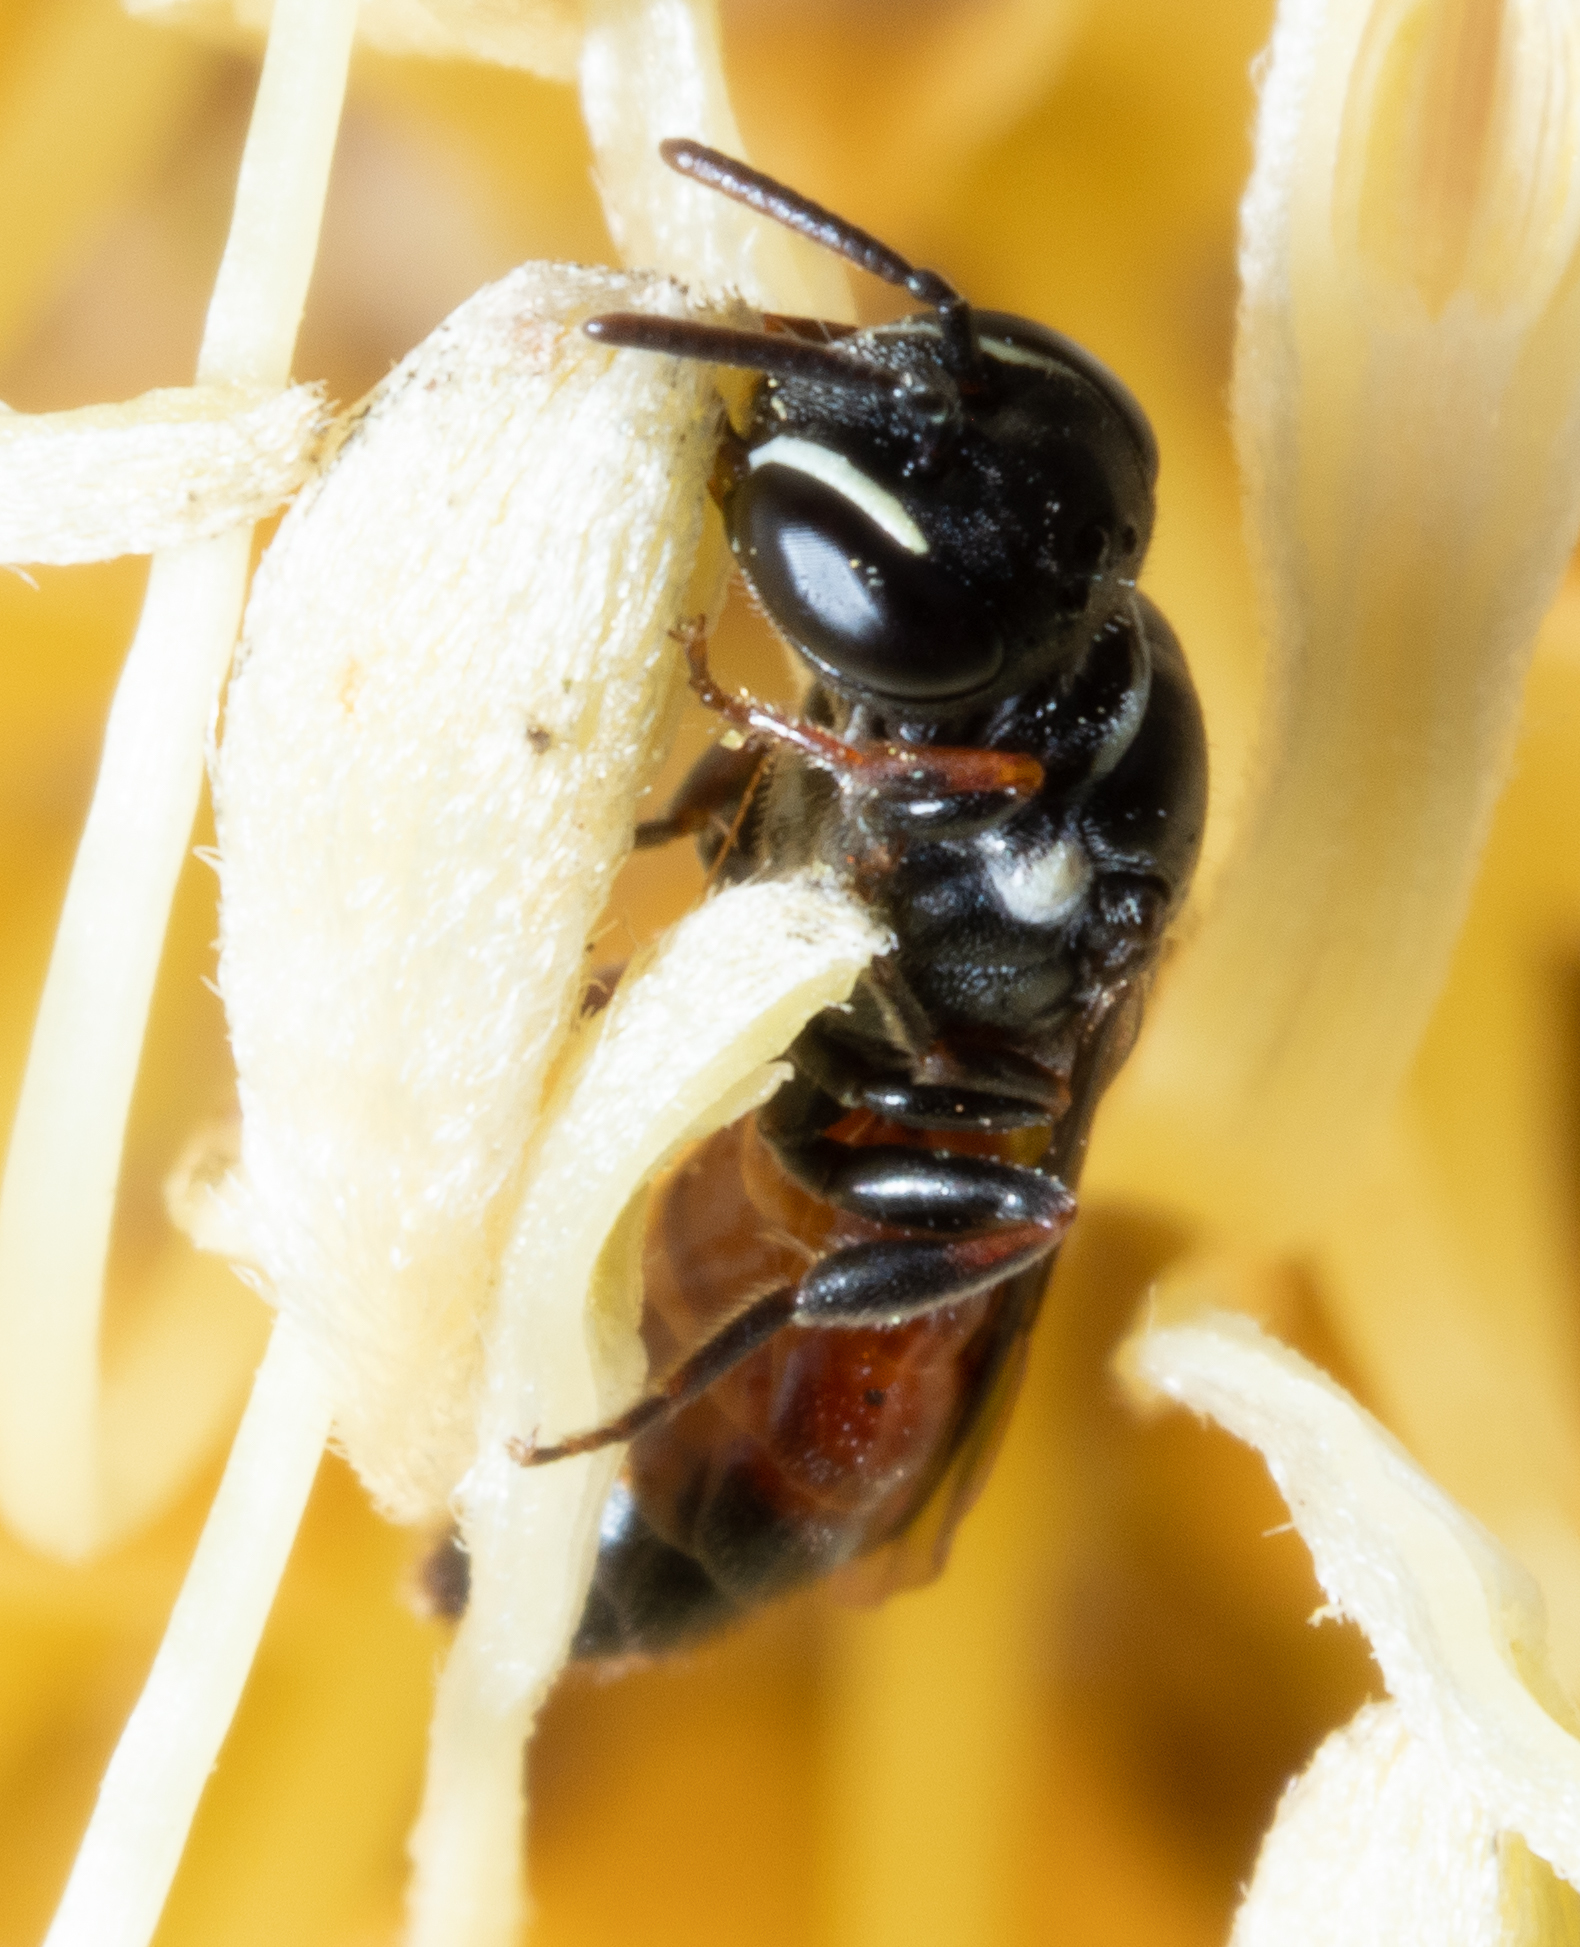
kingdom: Animalia
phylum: Arthropoda
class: Insecta
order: Hymenoptera
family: Colletidae
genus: Hylaeus
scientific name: Hylaeus littleri
